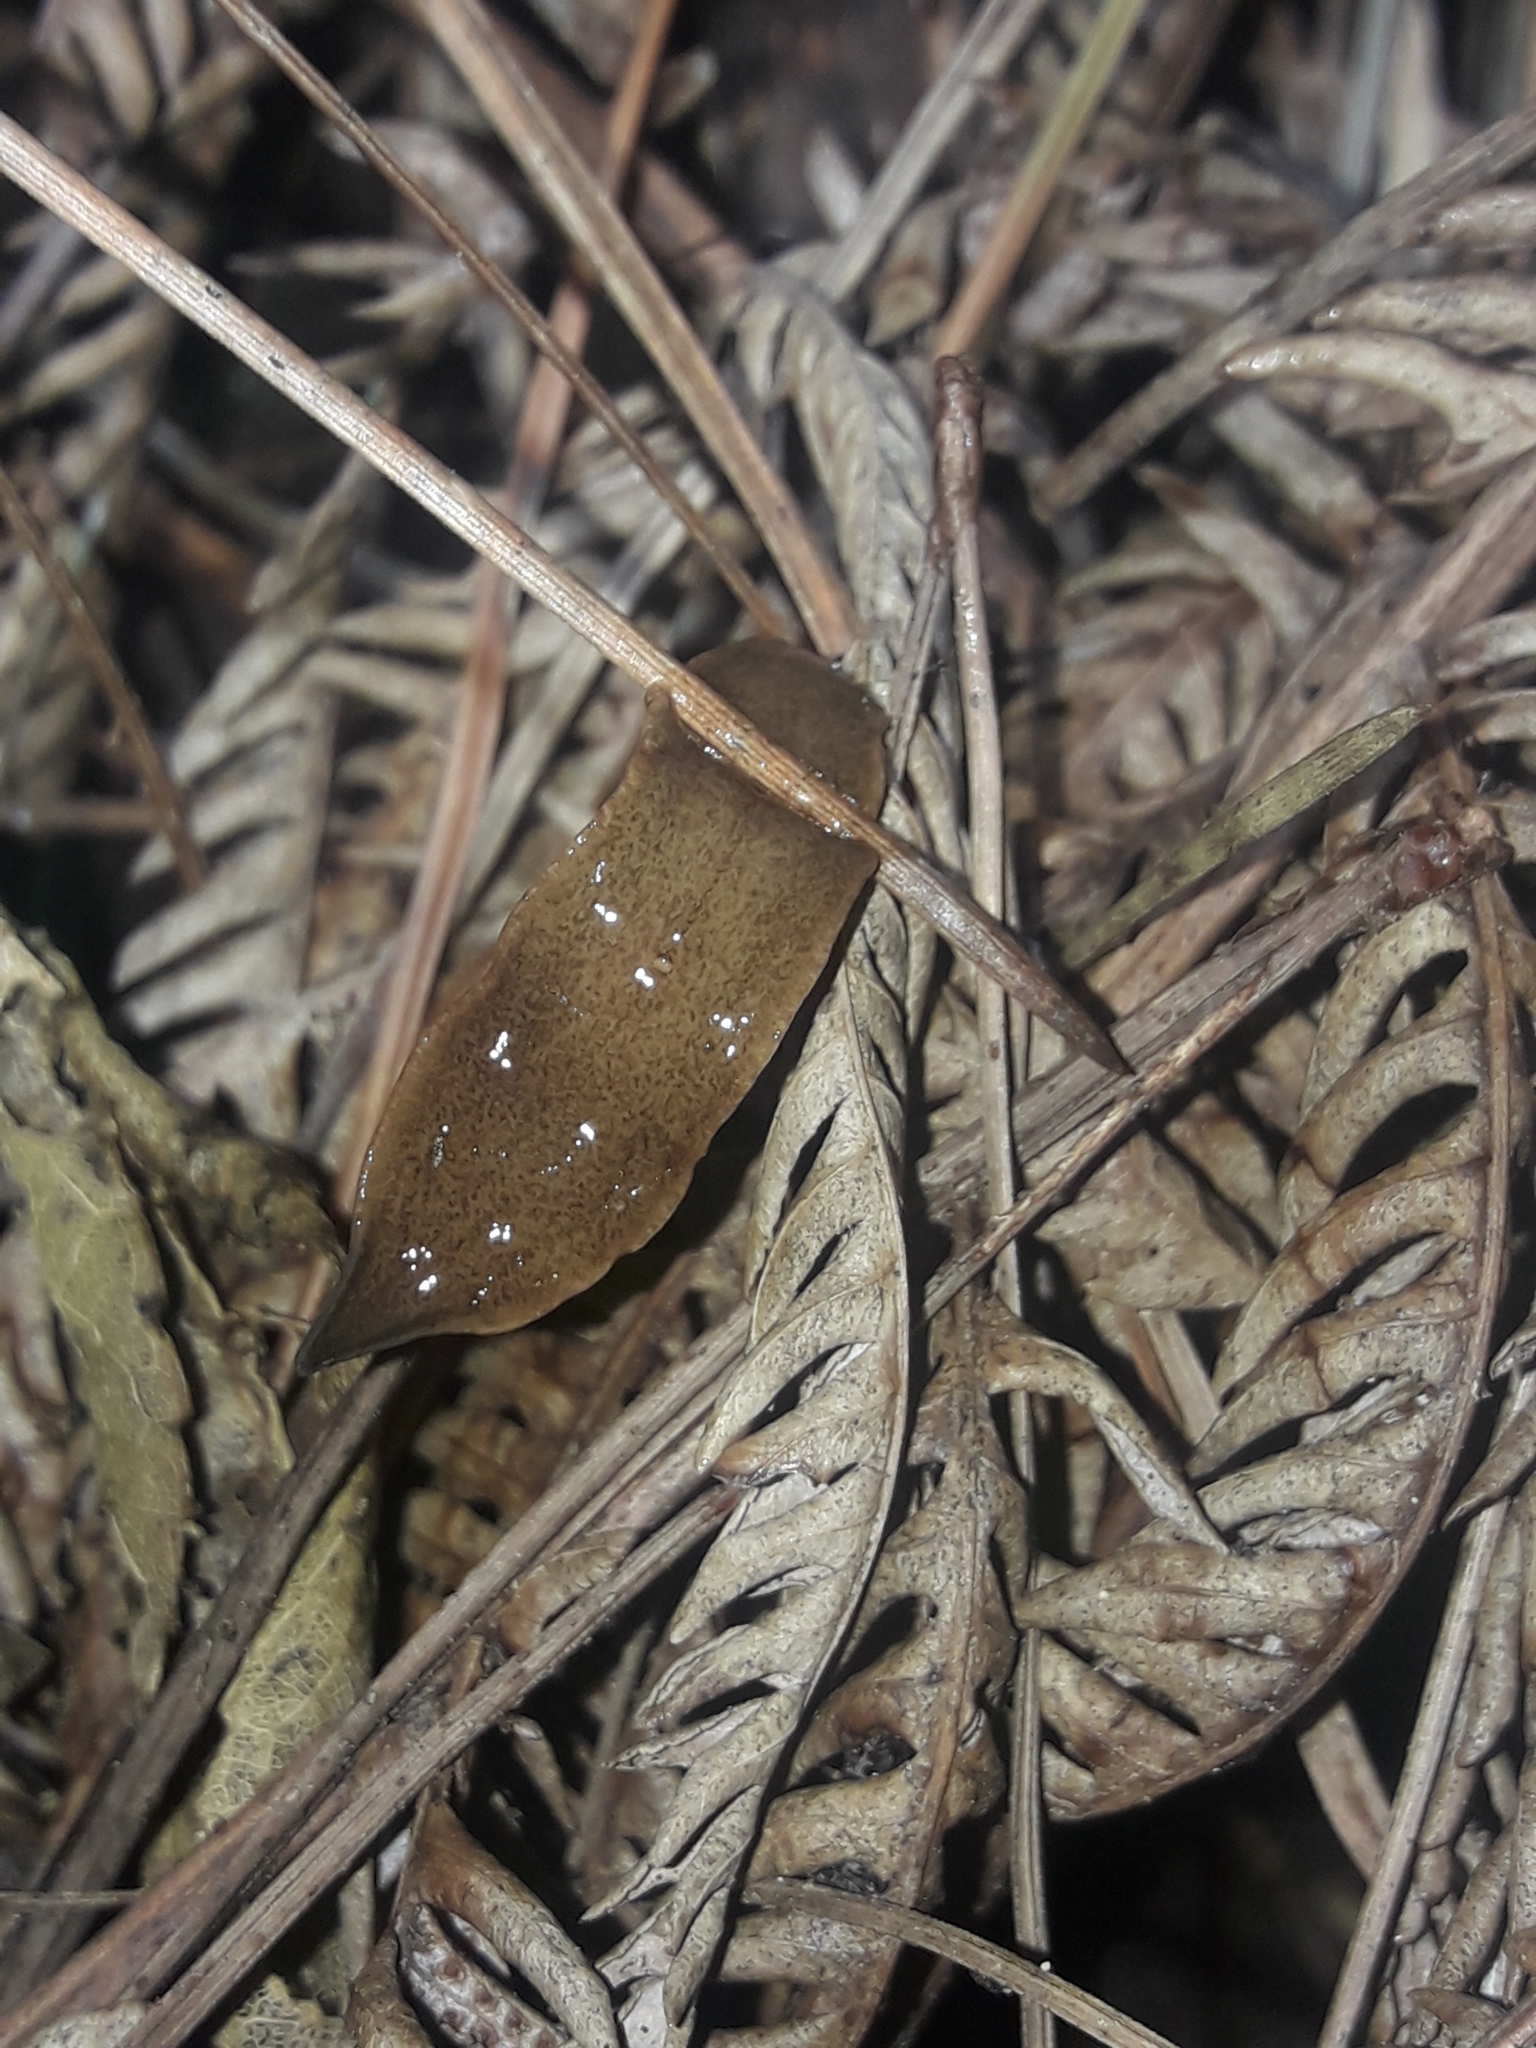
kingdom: Animalia
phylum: Platyhelminthes
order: Tricladida
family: Geoplanidae
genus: Newzealandia
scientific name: Newzealandia graffii
